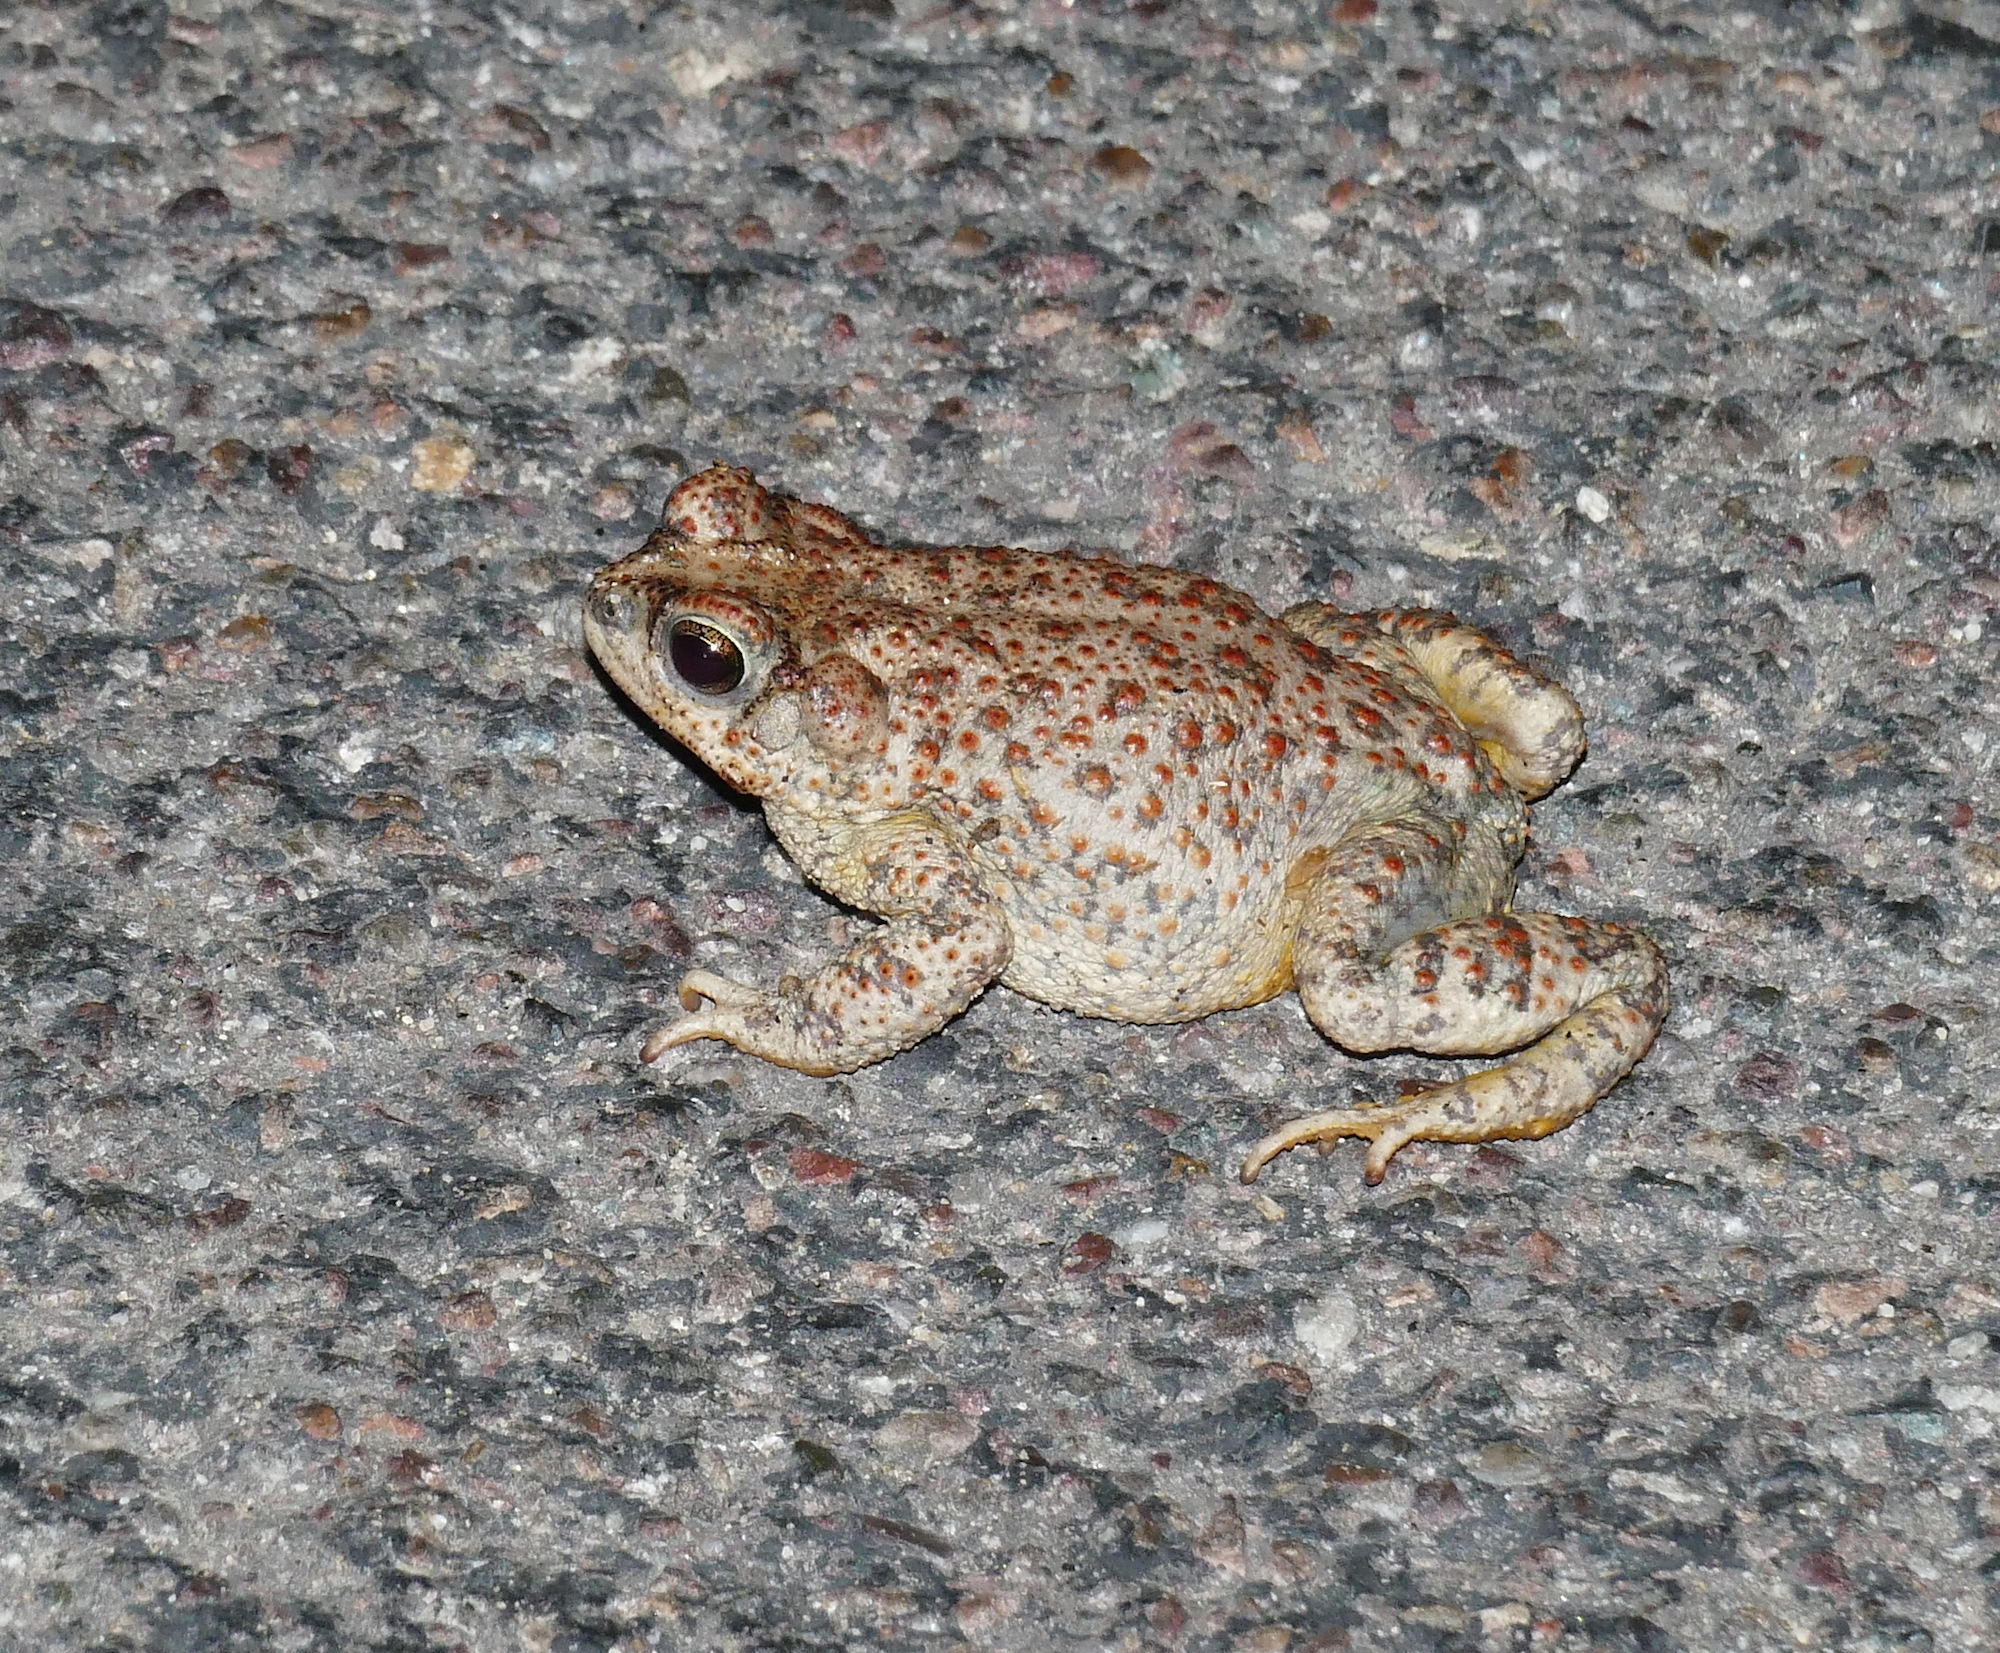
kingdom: Animalia
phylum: Chordata
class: Amphibia
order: Anura
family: Bufonidae
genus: Anaxyrus
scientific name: Anaxyrus punctatus
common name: Red-spotted toad
